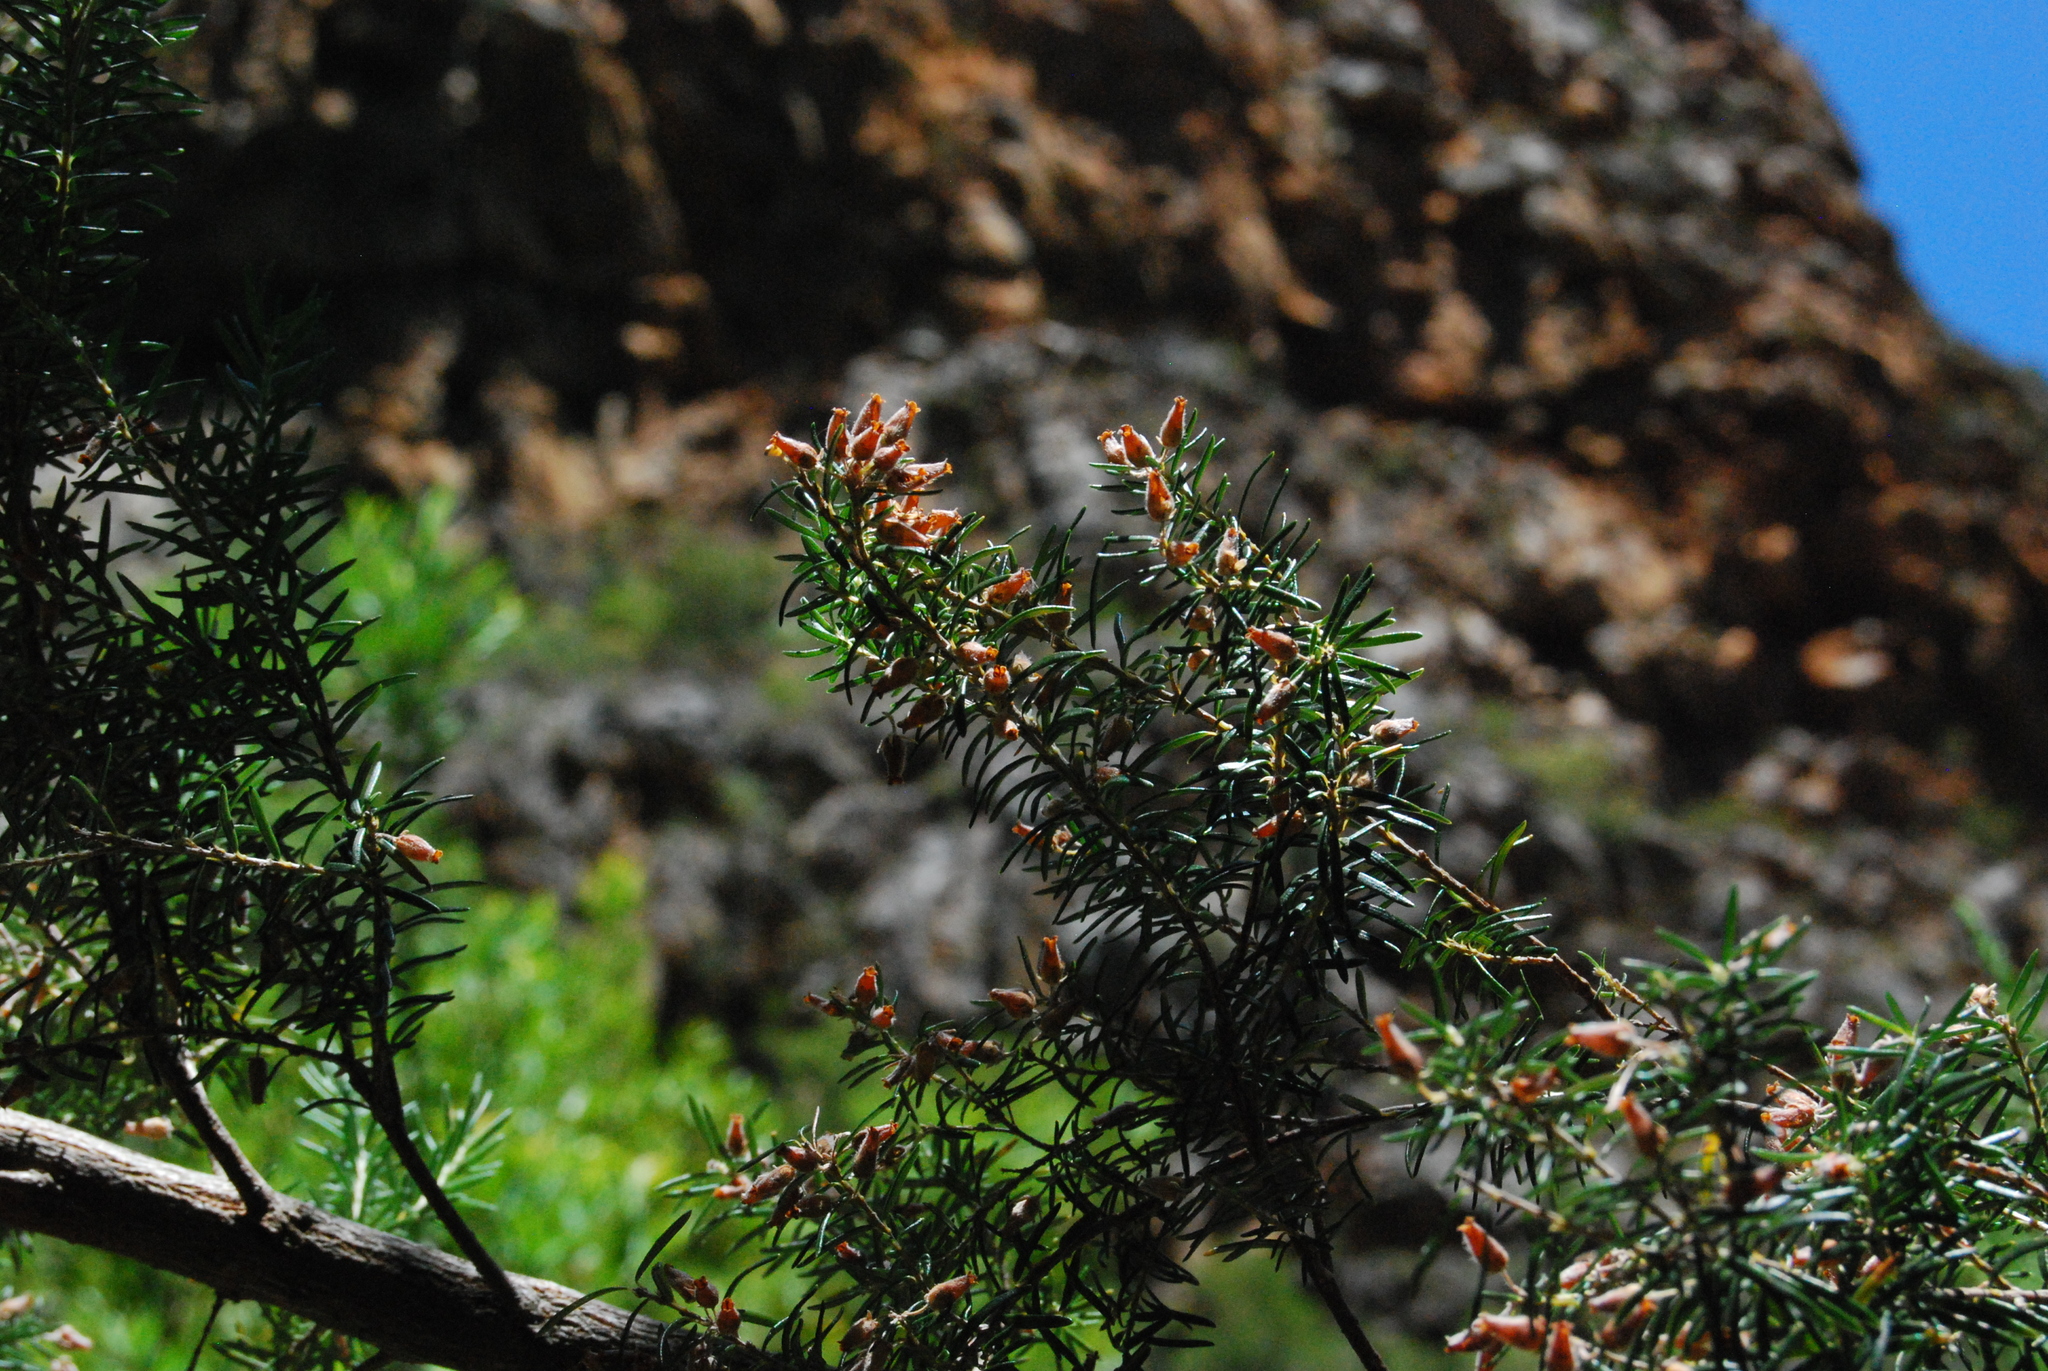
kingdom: Plantae
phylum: Tracheophyta
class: Magnoliopsida
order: Ericales
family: Ericaceae
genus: Erica
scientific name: Erica caffra
